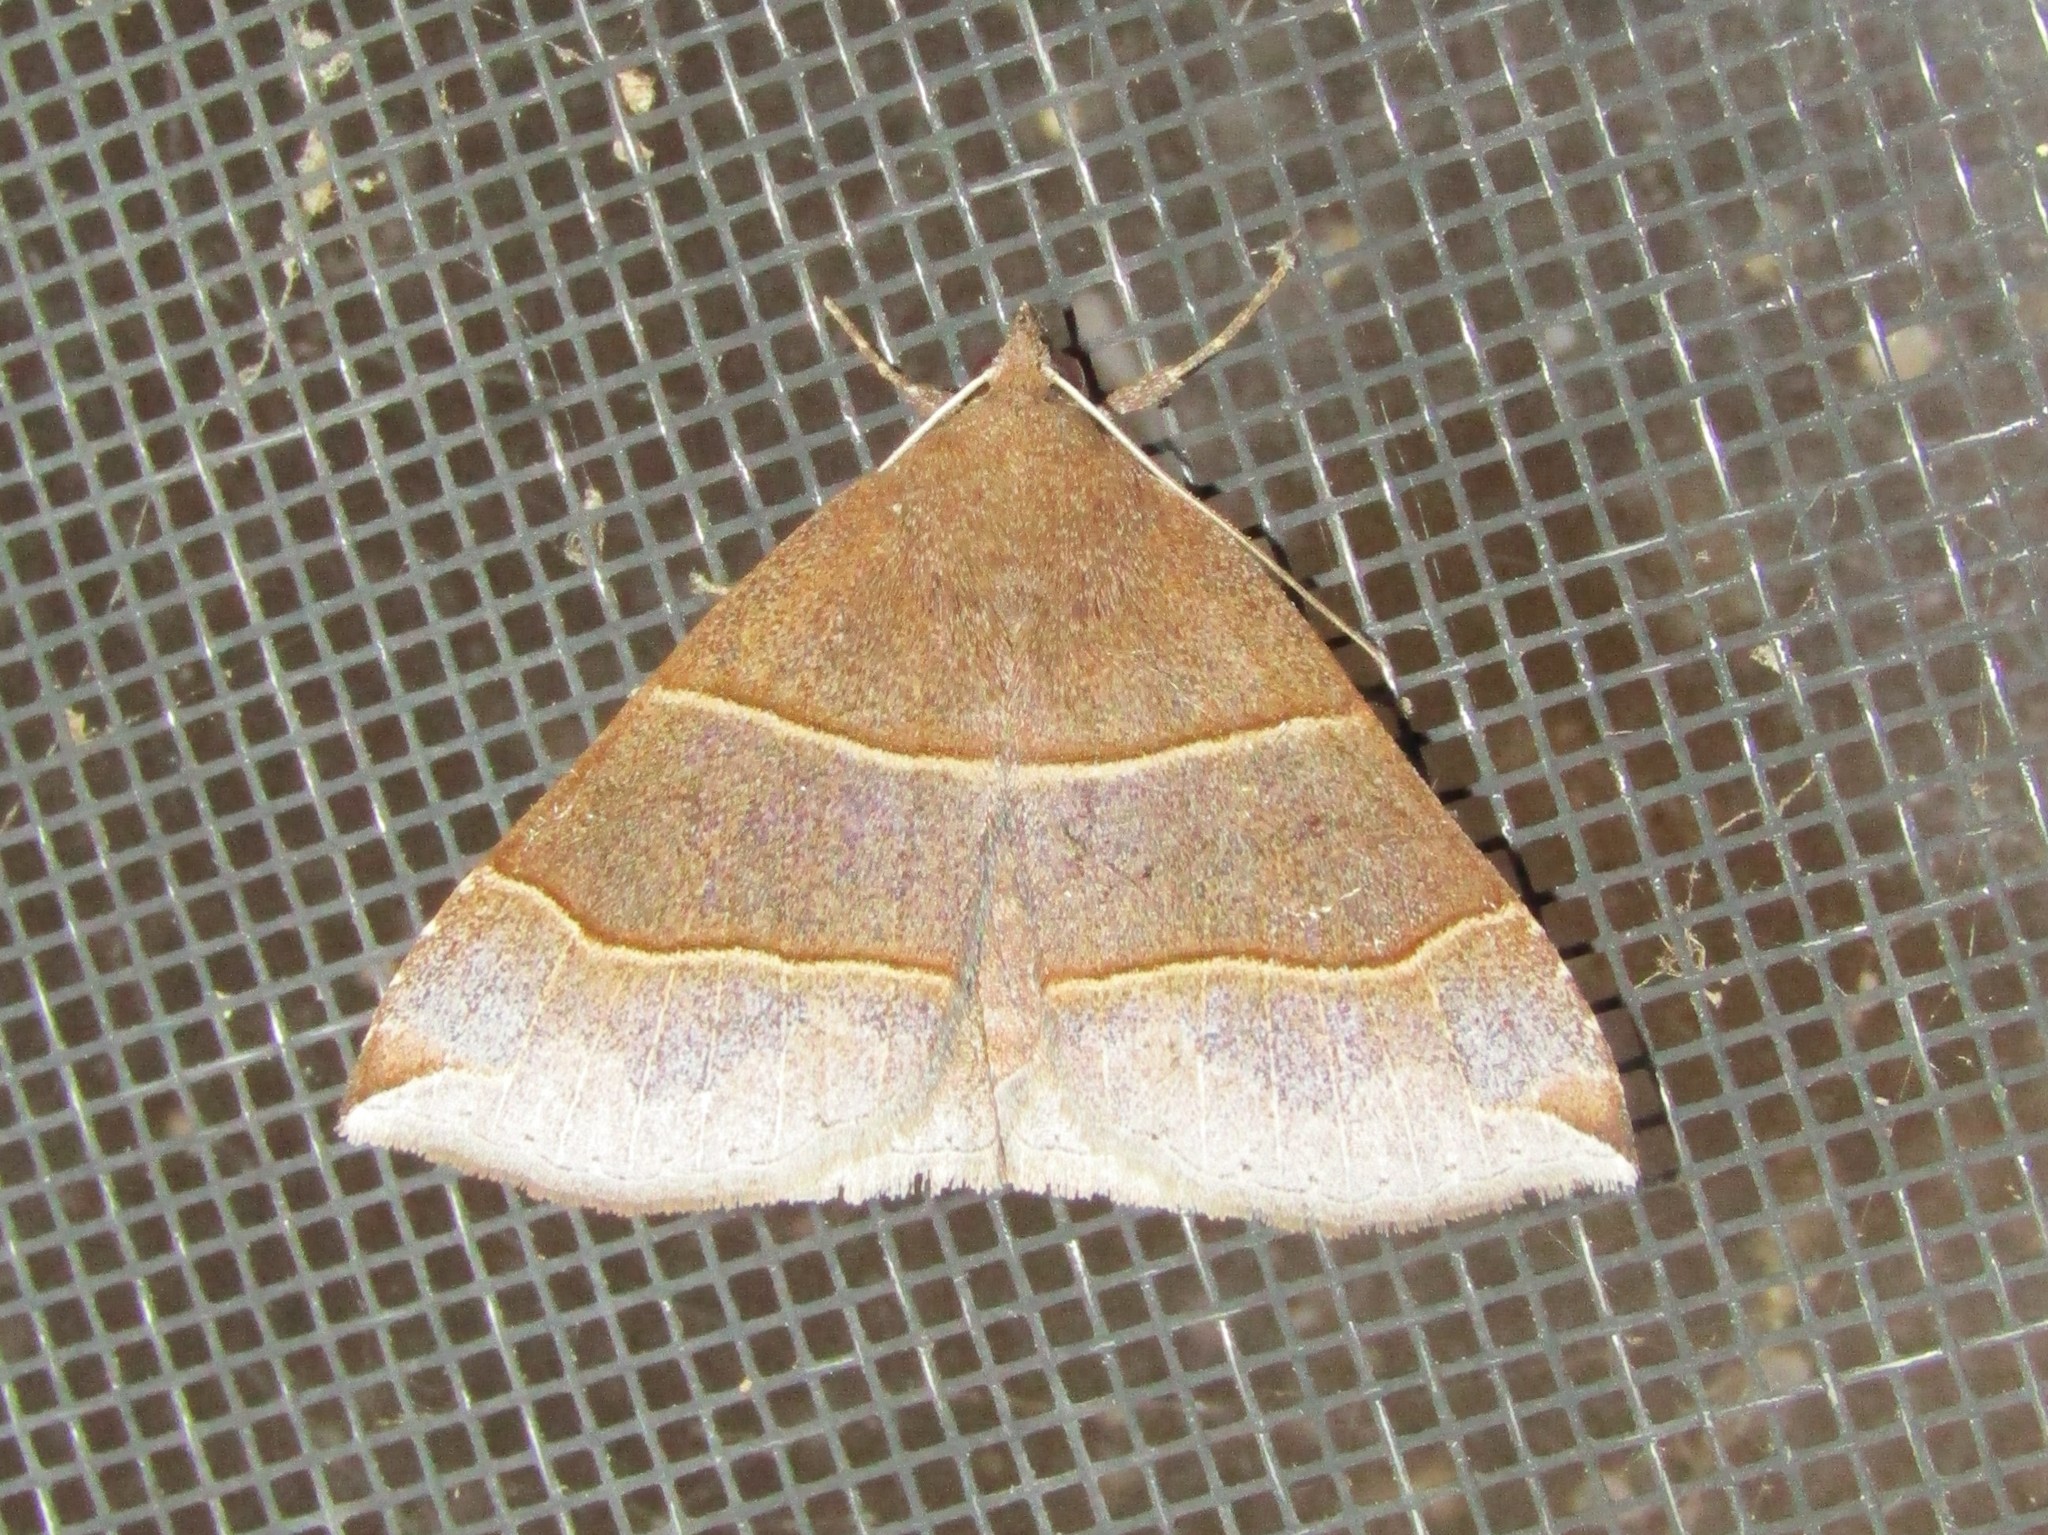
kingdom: Animalia
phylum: Arthropoda
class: Insecta
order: Lepidoptera
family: Erebidae
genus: Parallelia
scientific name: Parallelia bistriaris
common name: Maple looper moth
